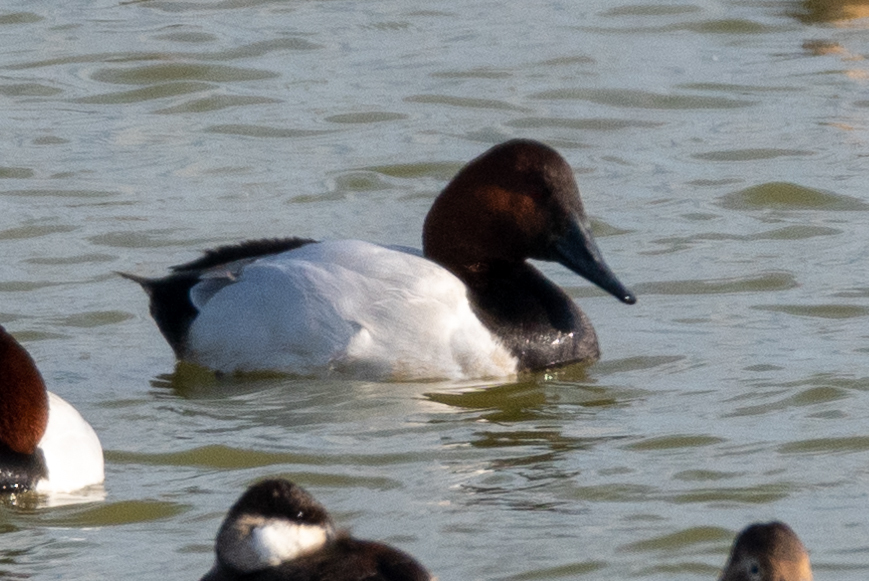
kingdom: Animalia
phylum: Chordata
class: Aves
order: Anseriformes
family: Anatidae
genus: Aythya
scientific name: Aythya valisineria
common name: Canvasback
